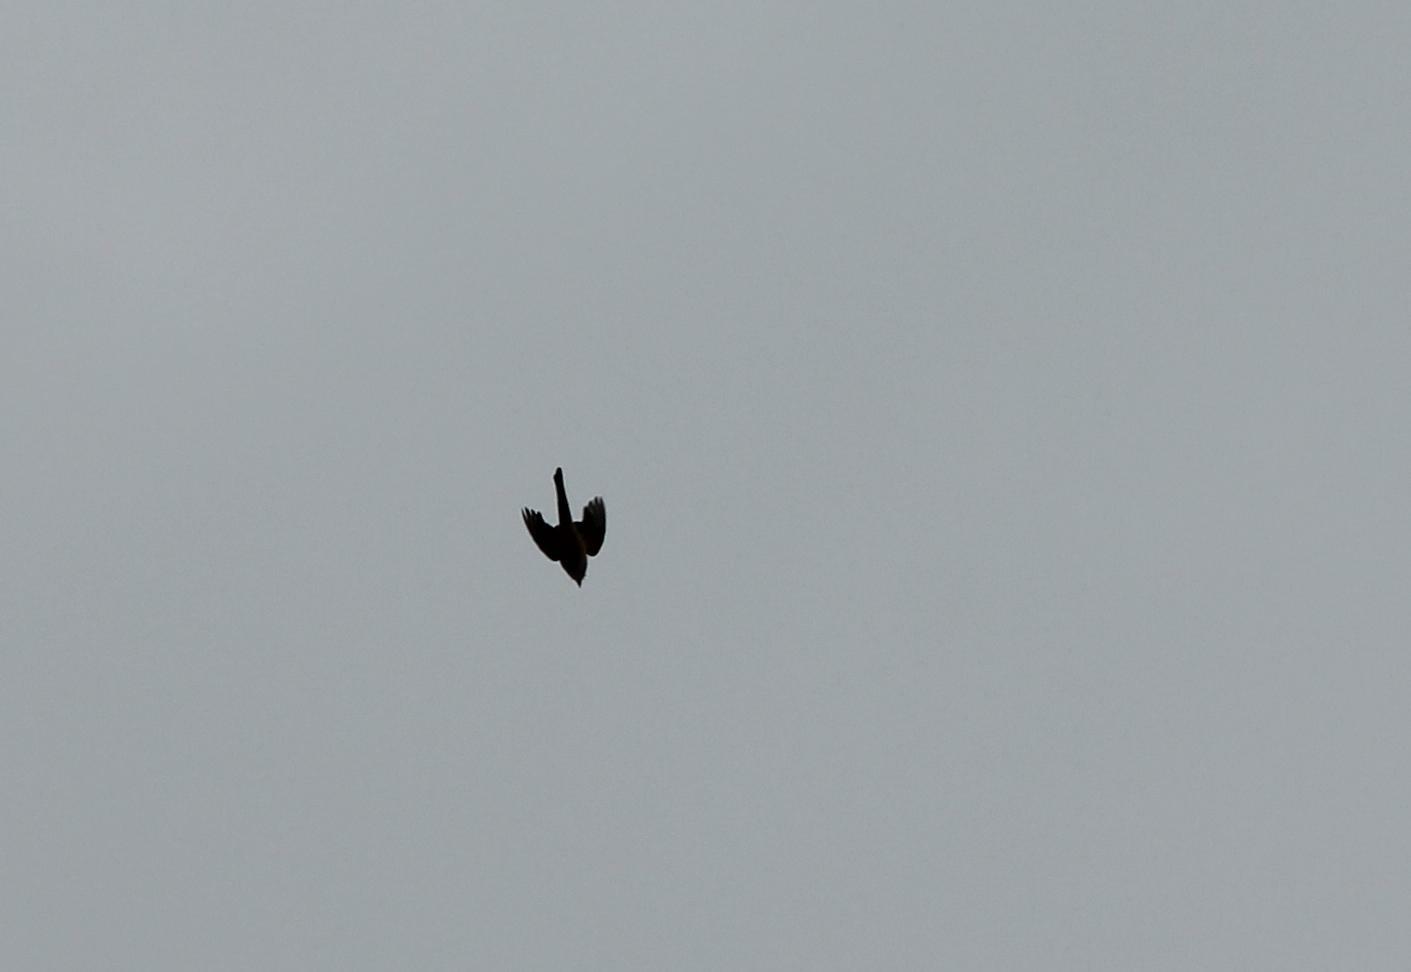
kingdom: Animalia
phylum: Chordata
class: Aves
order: Passeriformes
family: Tyrannidae
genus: Tyrannus
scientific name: Tyrannus forficatus
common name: Scissor-tailed flycatcher
